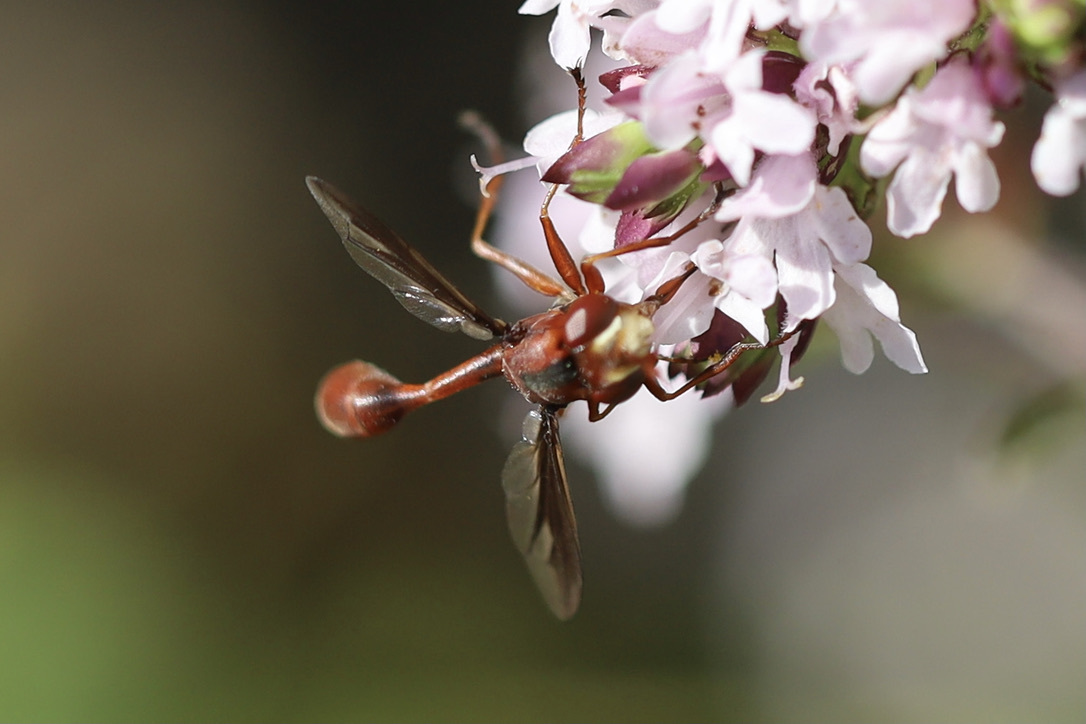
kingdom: Animalia
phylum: Arthropoda
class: Insecta
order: Diptera
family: Conopidae
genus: Physocephala
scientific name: Physocephala burgessi
